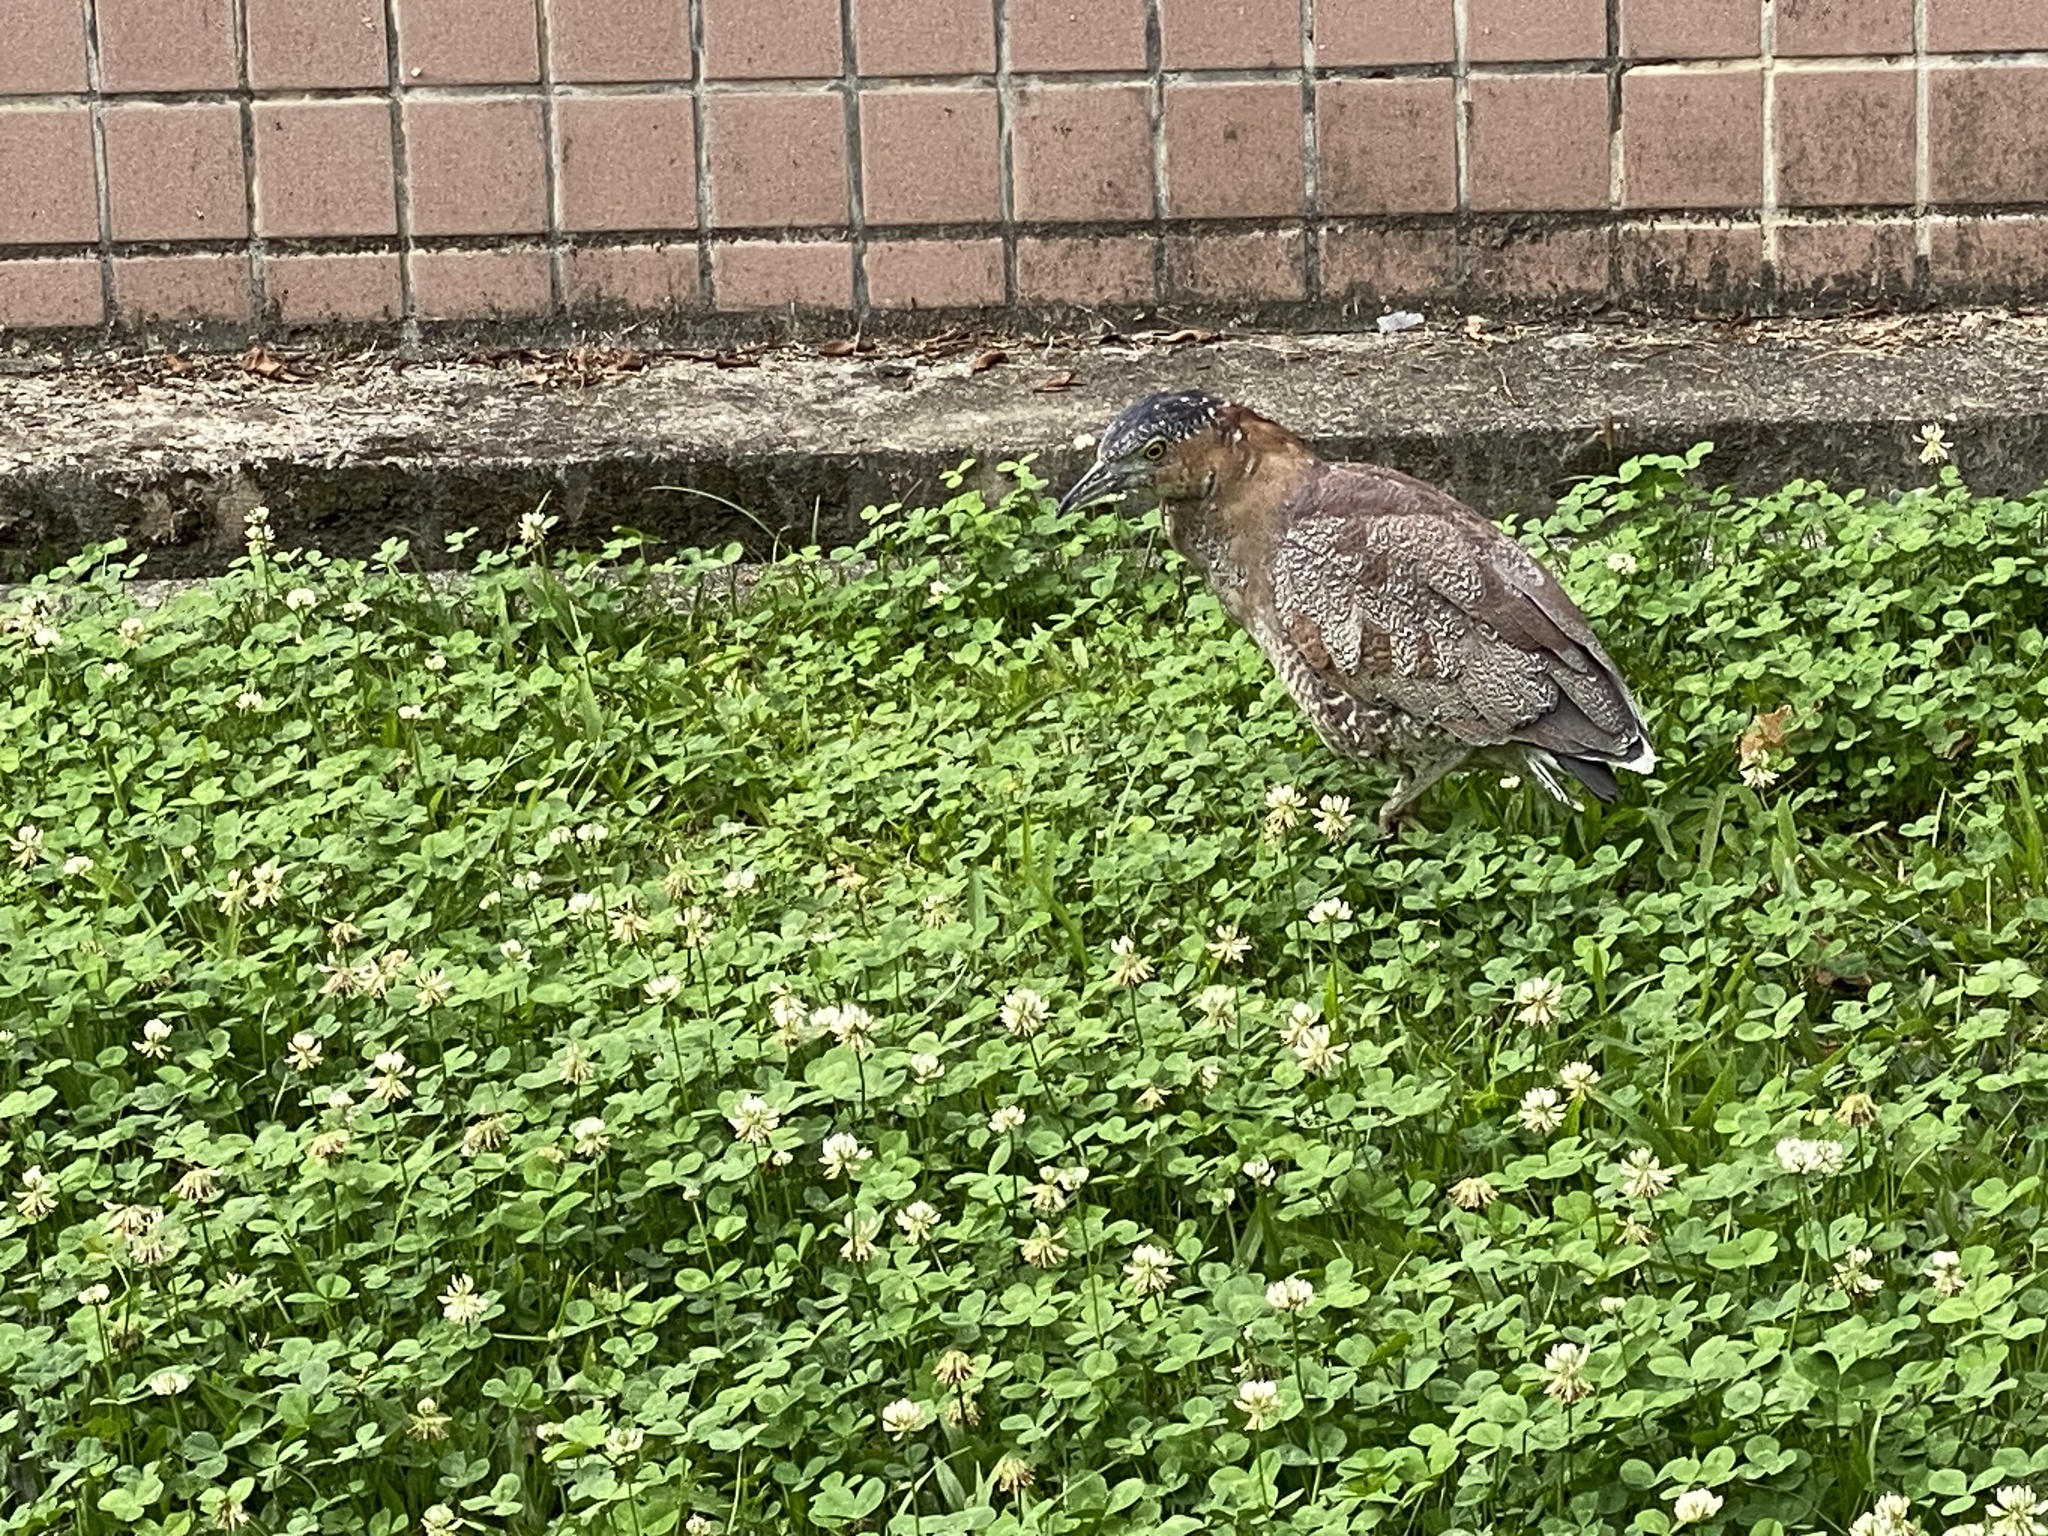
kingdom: Animalia
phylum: Chordata
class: Aves
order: Pelecaniformes
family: Ardeidae
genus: Gorsachius
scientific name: Gorsachius melanolophus
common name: Malayan night heron
